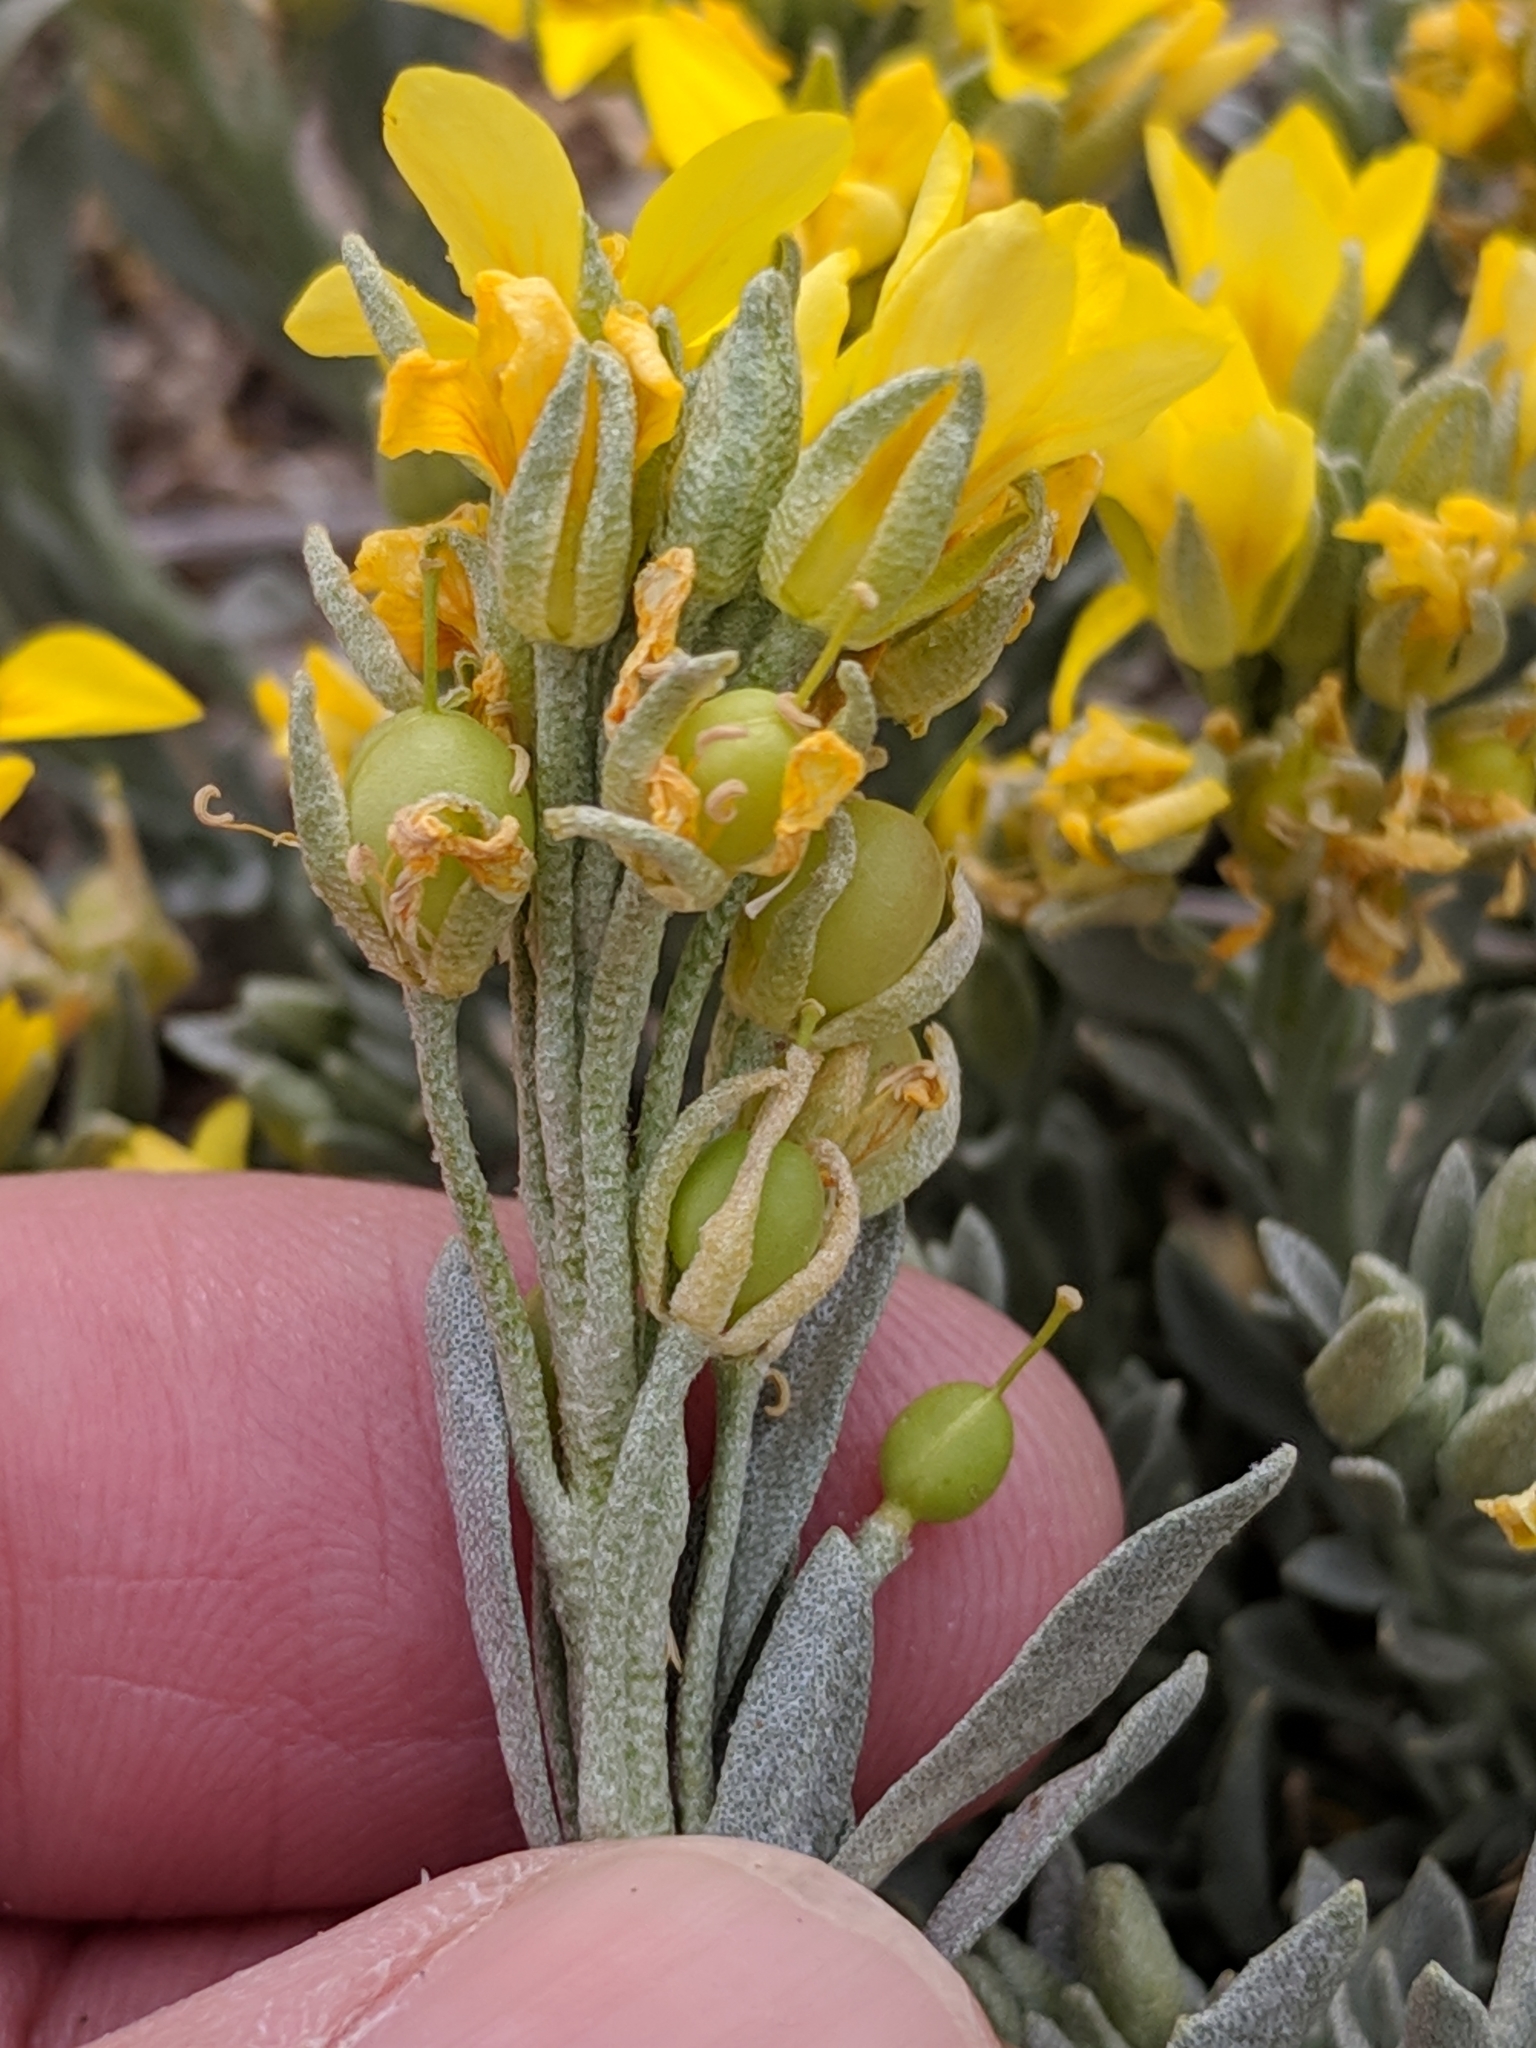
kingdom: Plantae
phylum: Tracheophyta
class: Magnoliopsida
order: Brassicales
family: Brassicaceae
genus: Physaria
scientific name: Physaria fendleri
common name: Fendler's bladderpod
